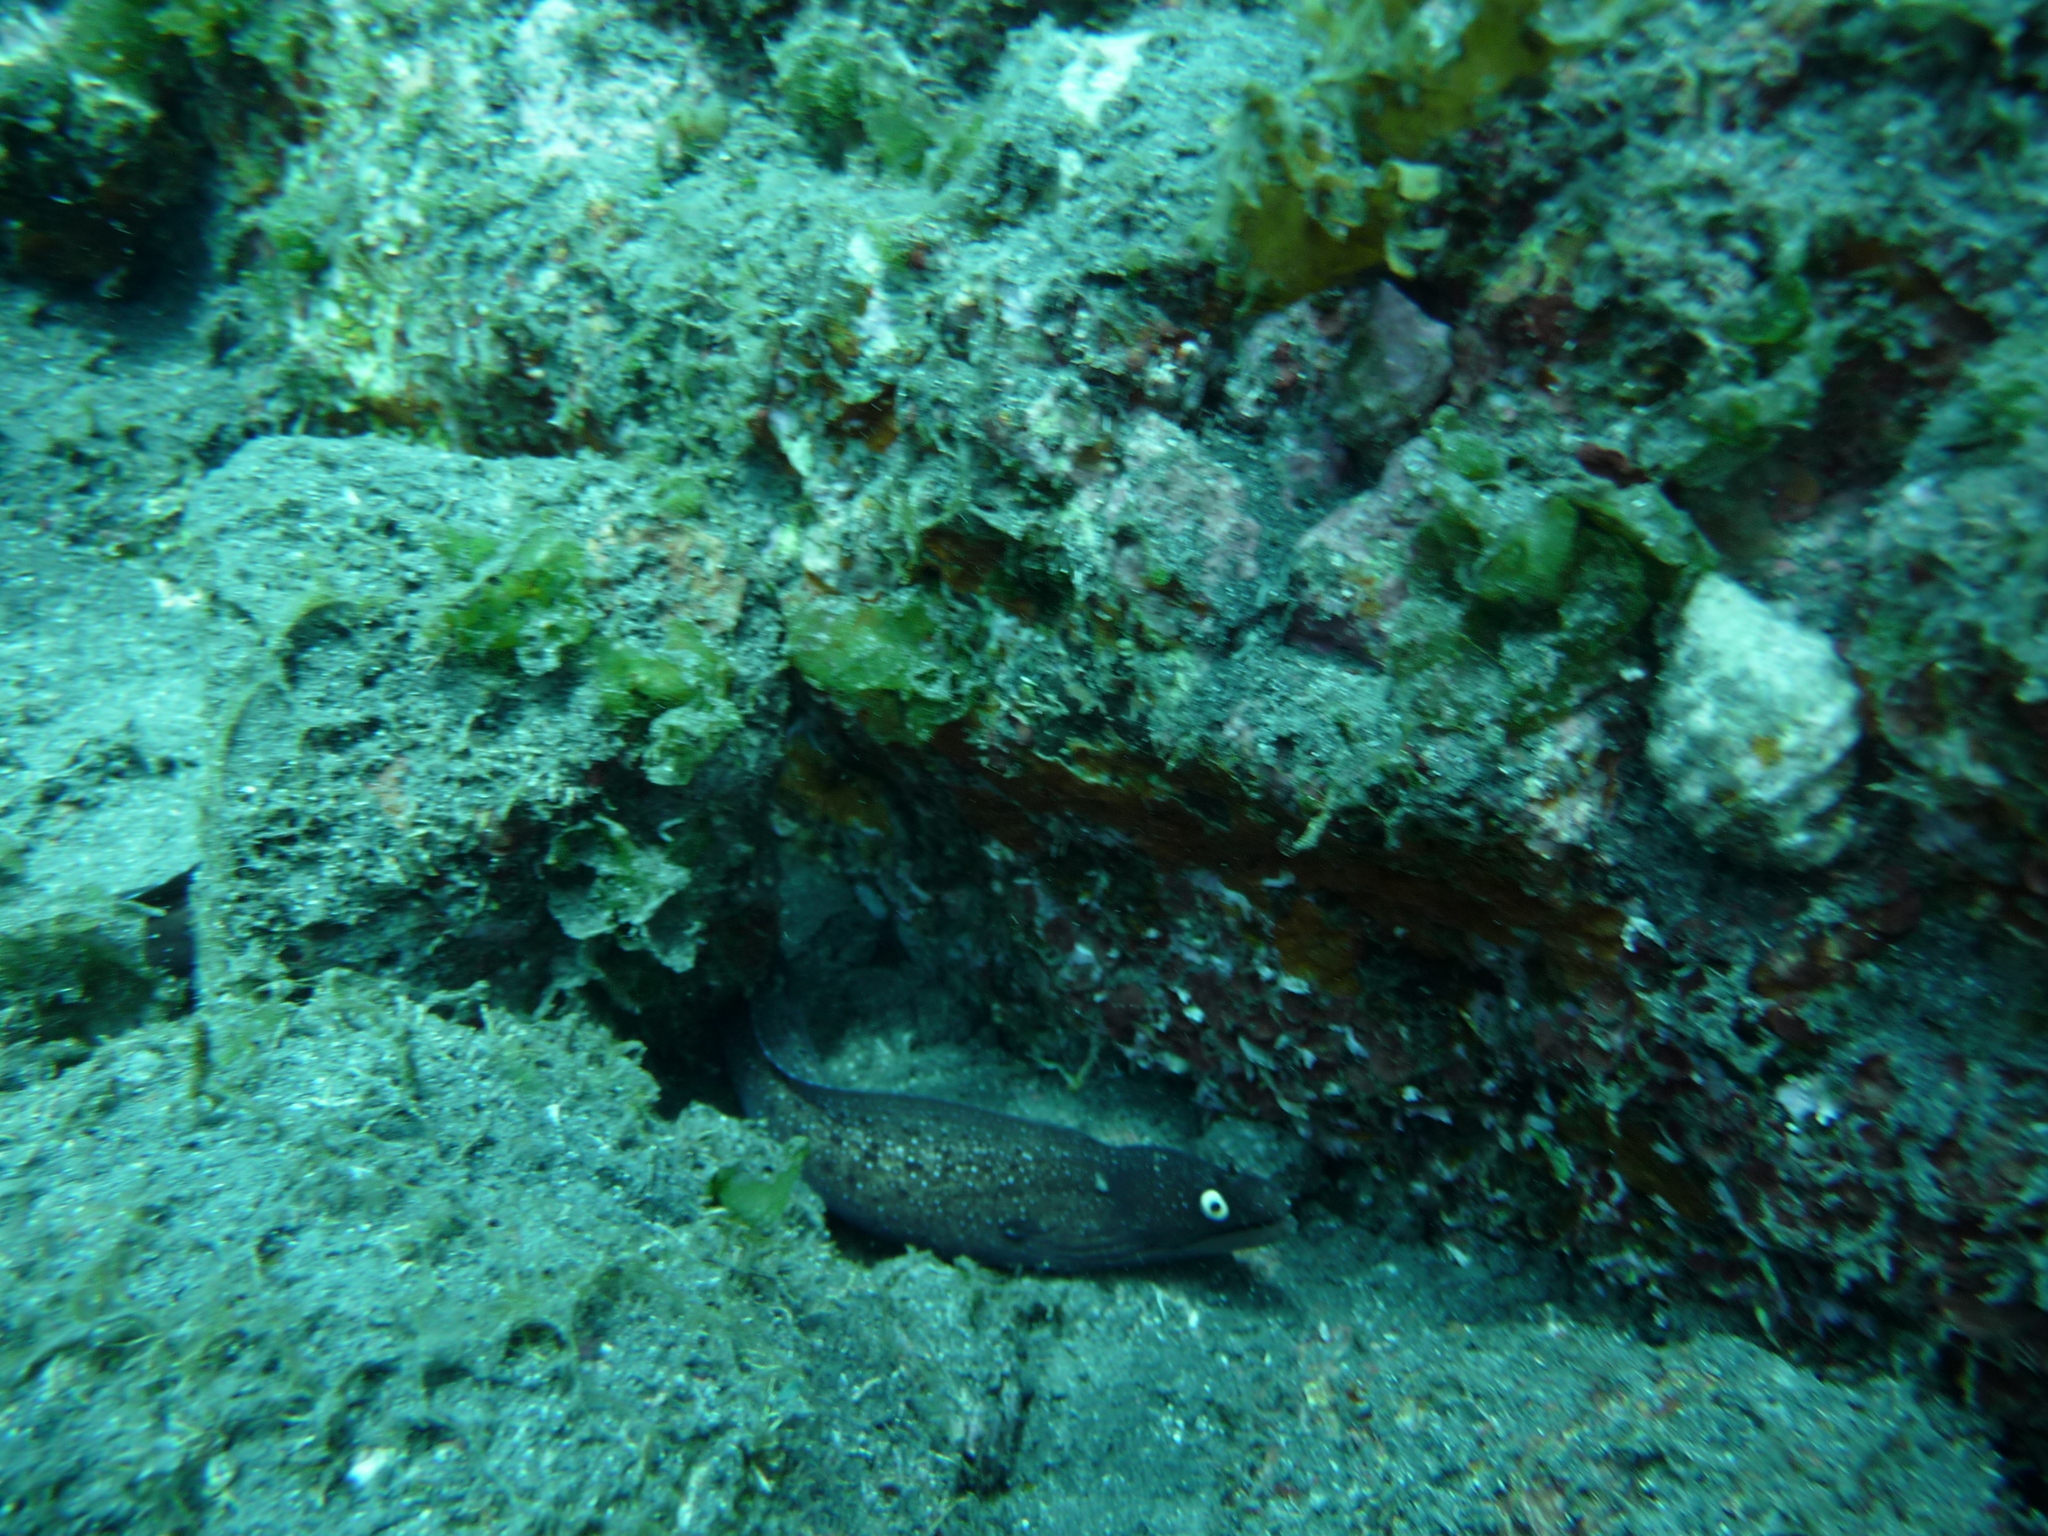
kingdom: Animalia
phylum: Chordata
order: Anguilliformes
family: Muraenidae
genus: Muraena
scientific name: Muraena augusti
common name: Mediterranean moray
